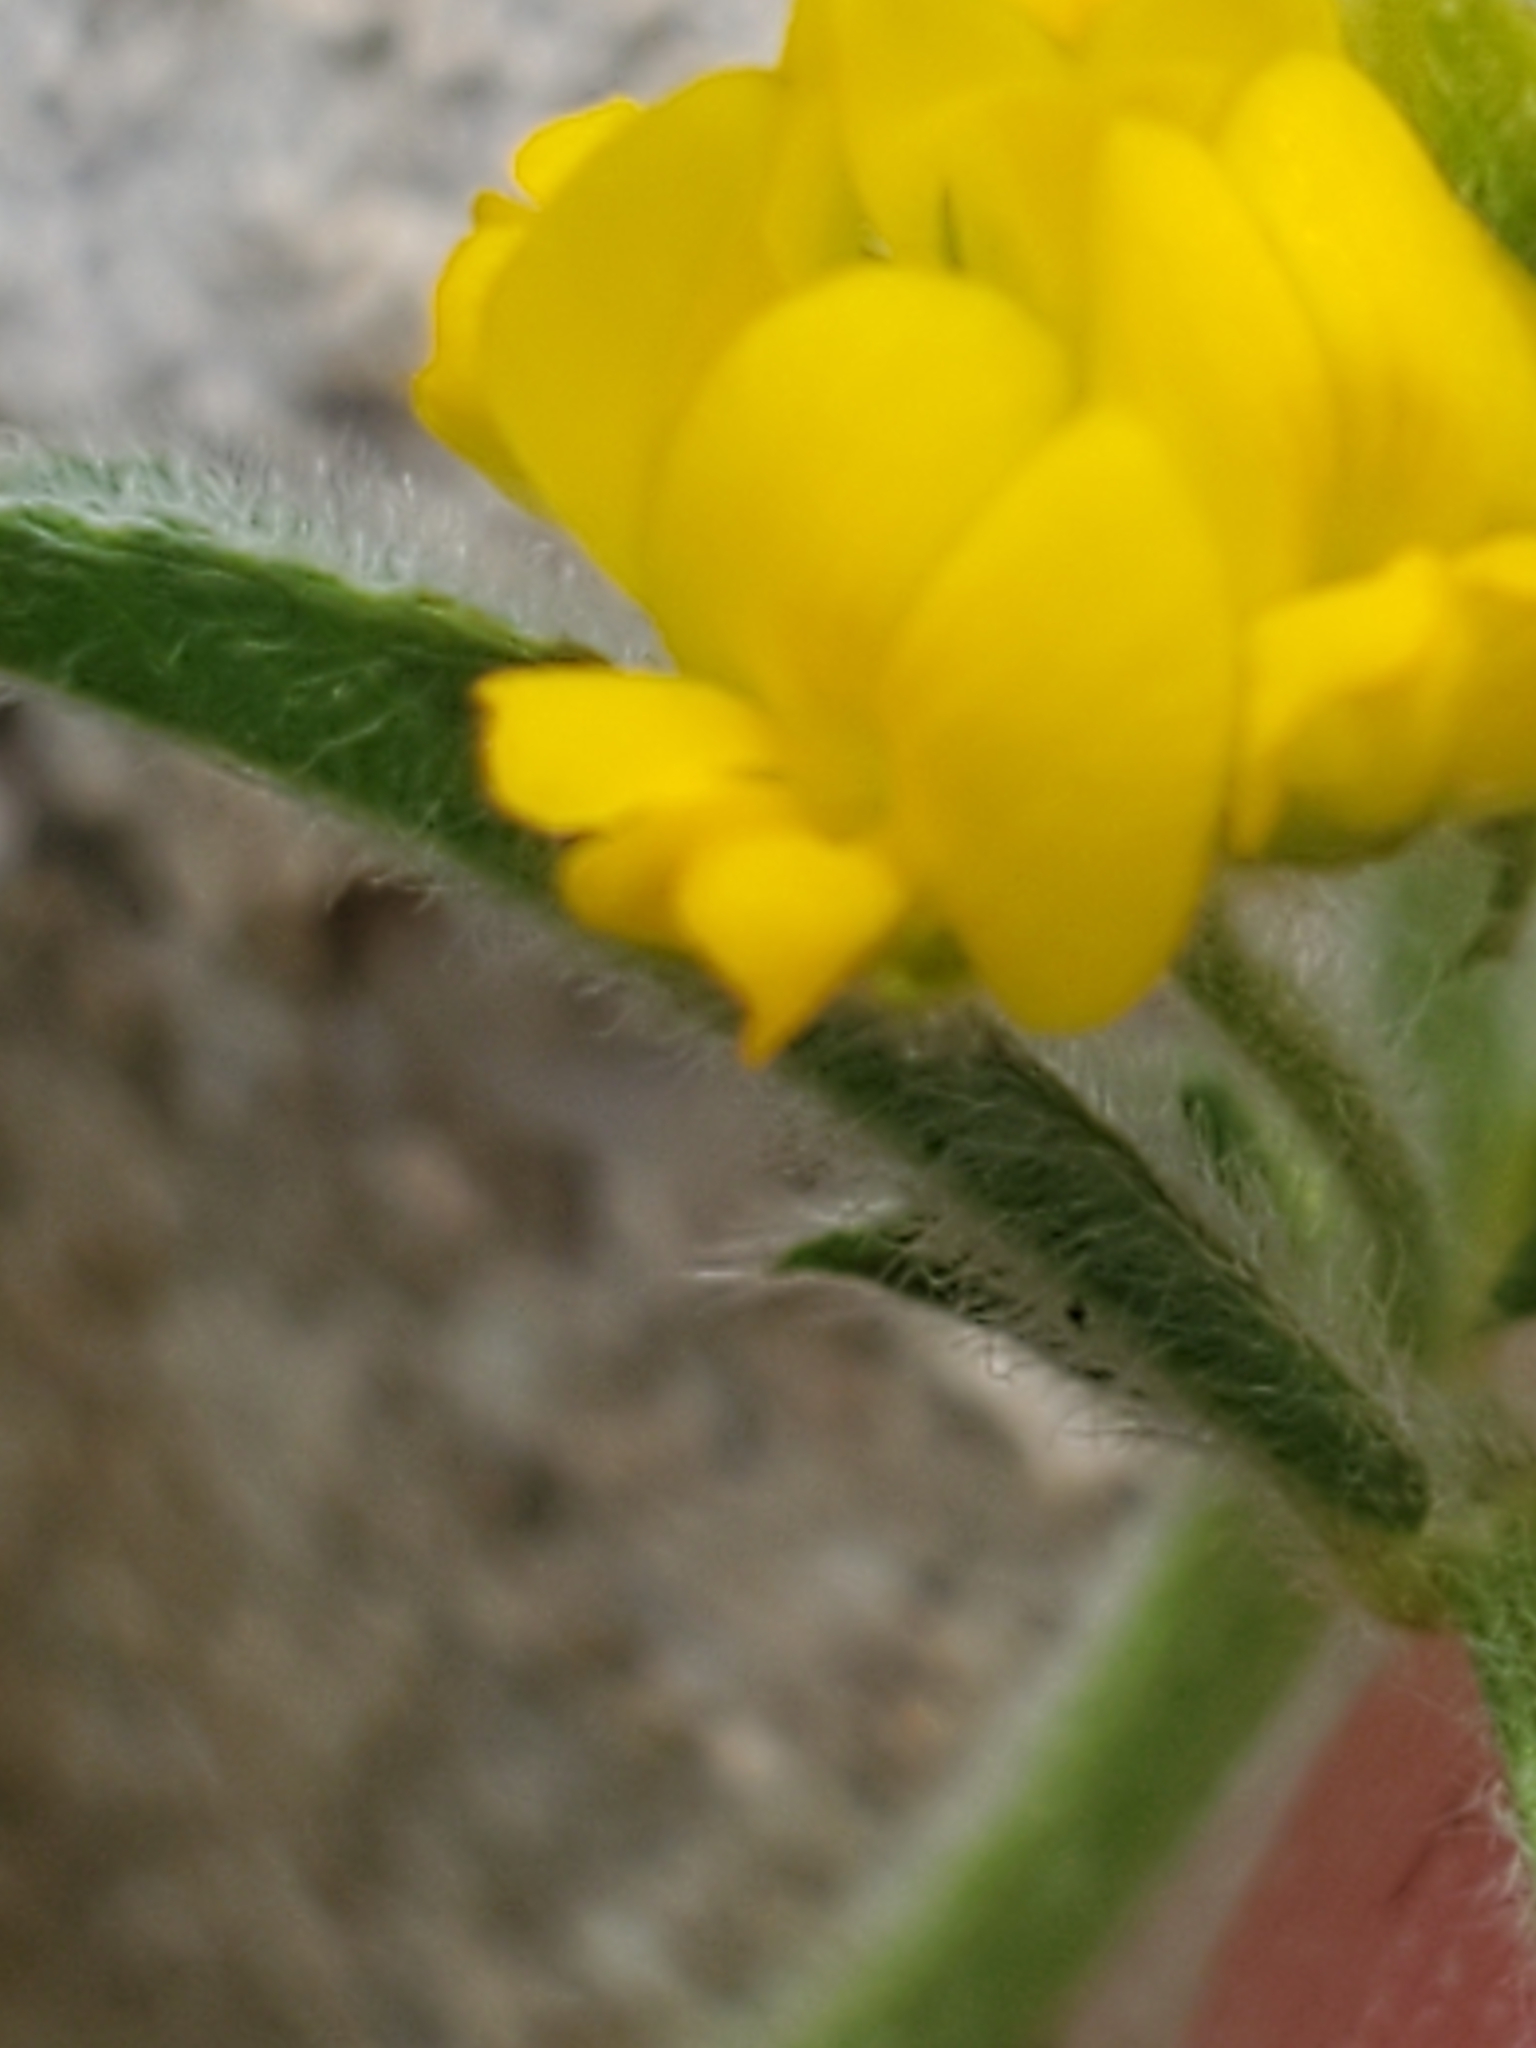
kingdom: Plantae
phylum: Tracheophyta
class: Magnoliopsida
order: Fabales
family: Fabaceae
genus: Medicago
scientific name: Medicago minima
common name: Little bur-clover
